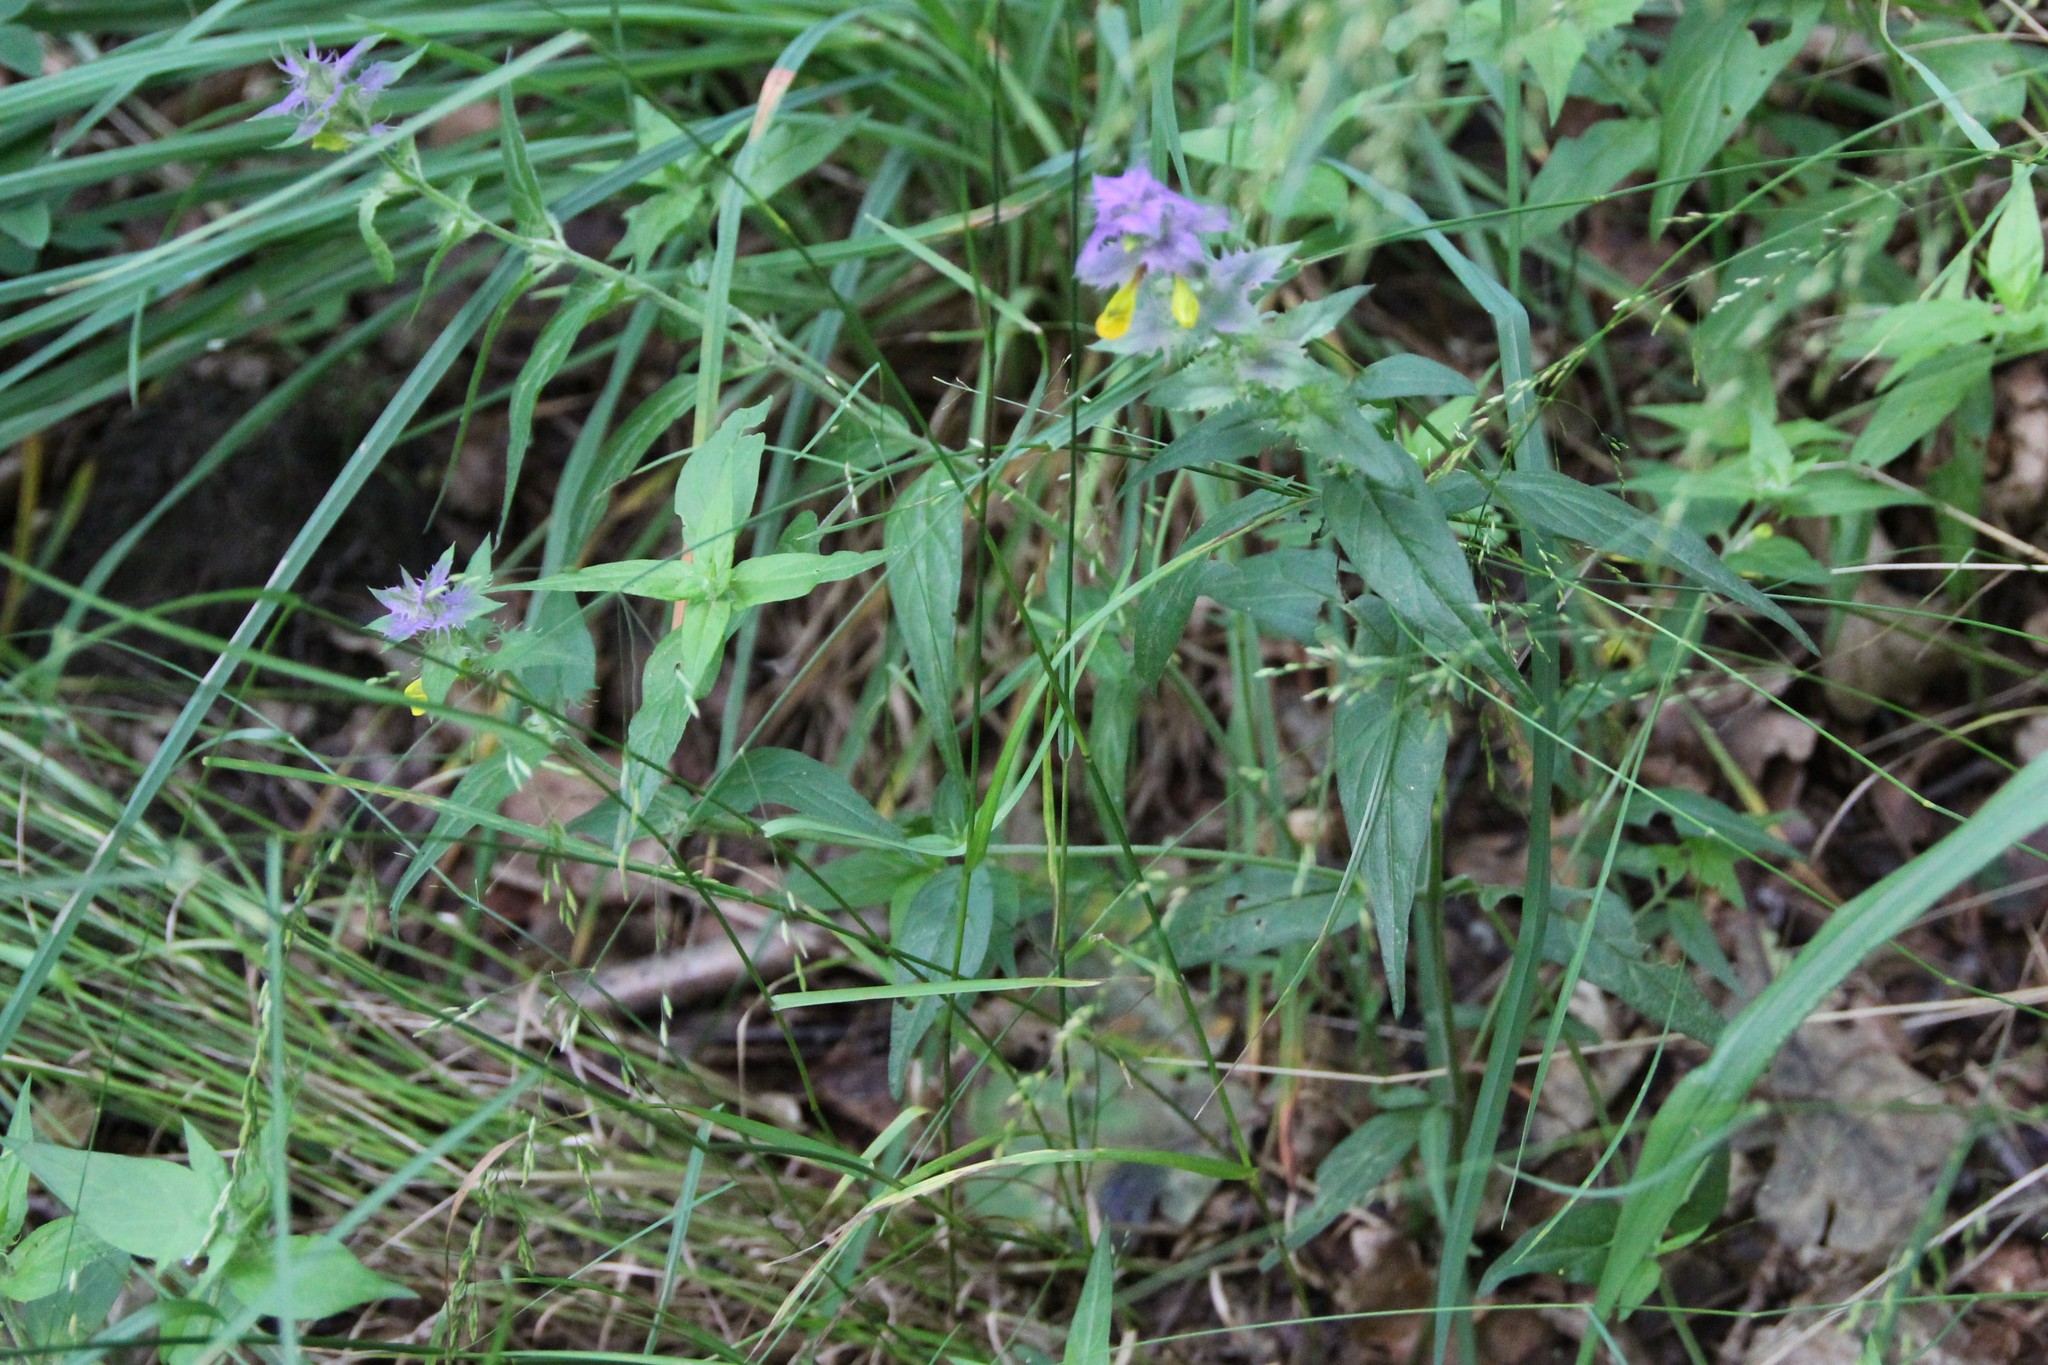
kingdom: Plantae
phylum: Tracheophyta
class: Magnoliopsida
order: Lamiales
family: Orobanchaceae
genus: Melampyrum
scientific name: Melampyrum nemorosum
